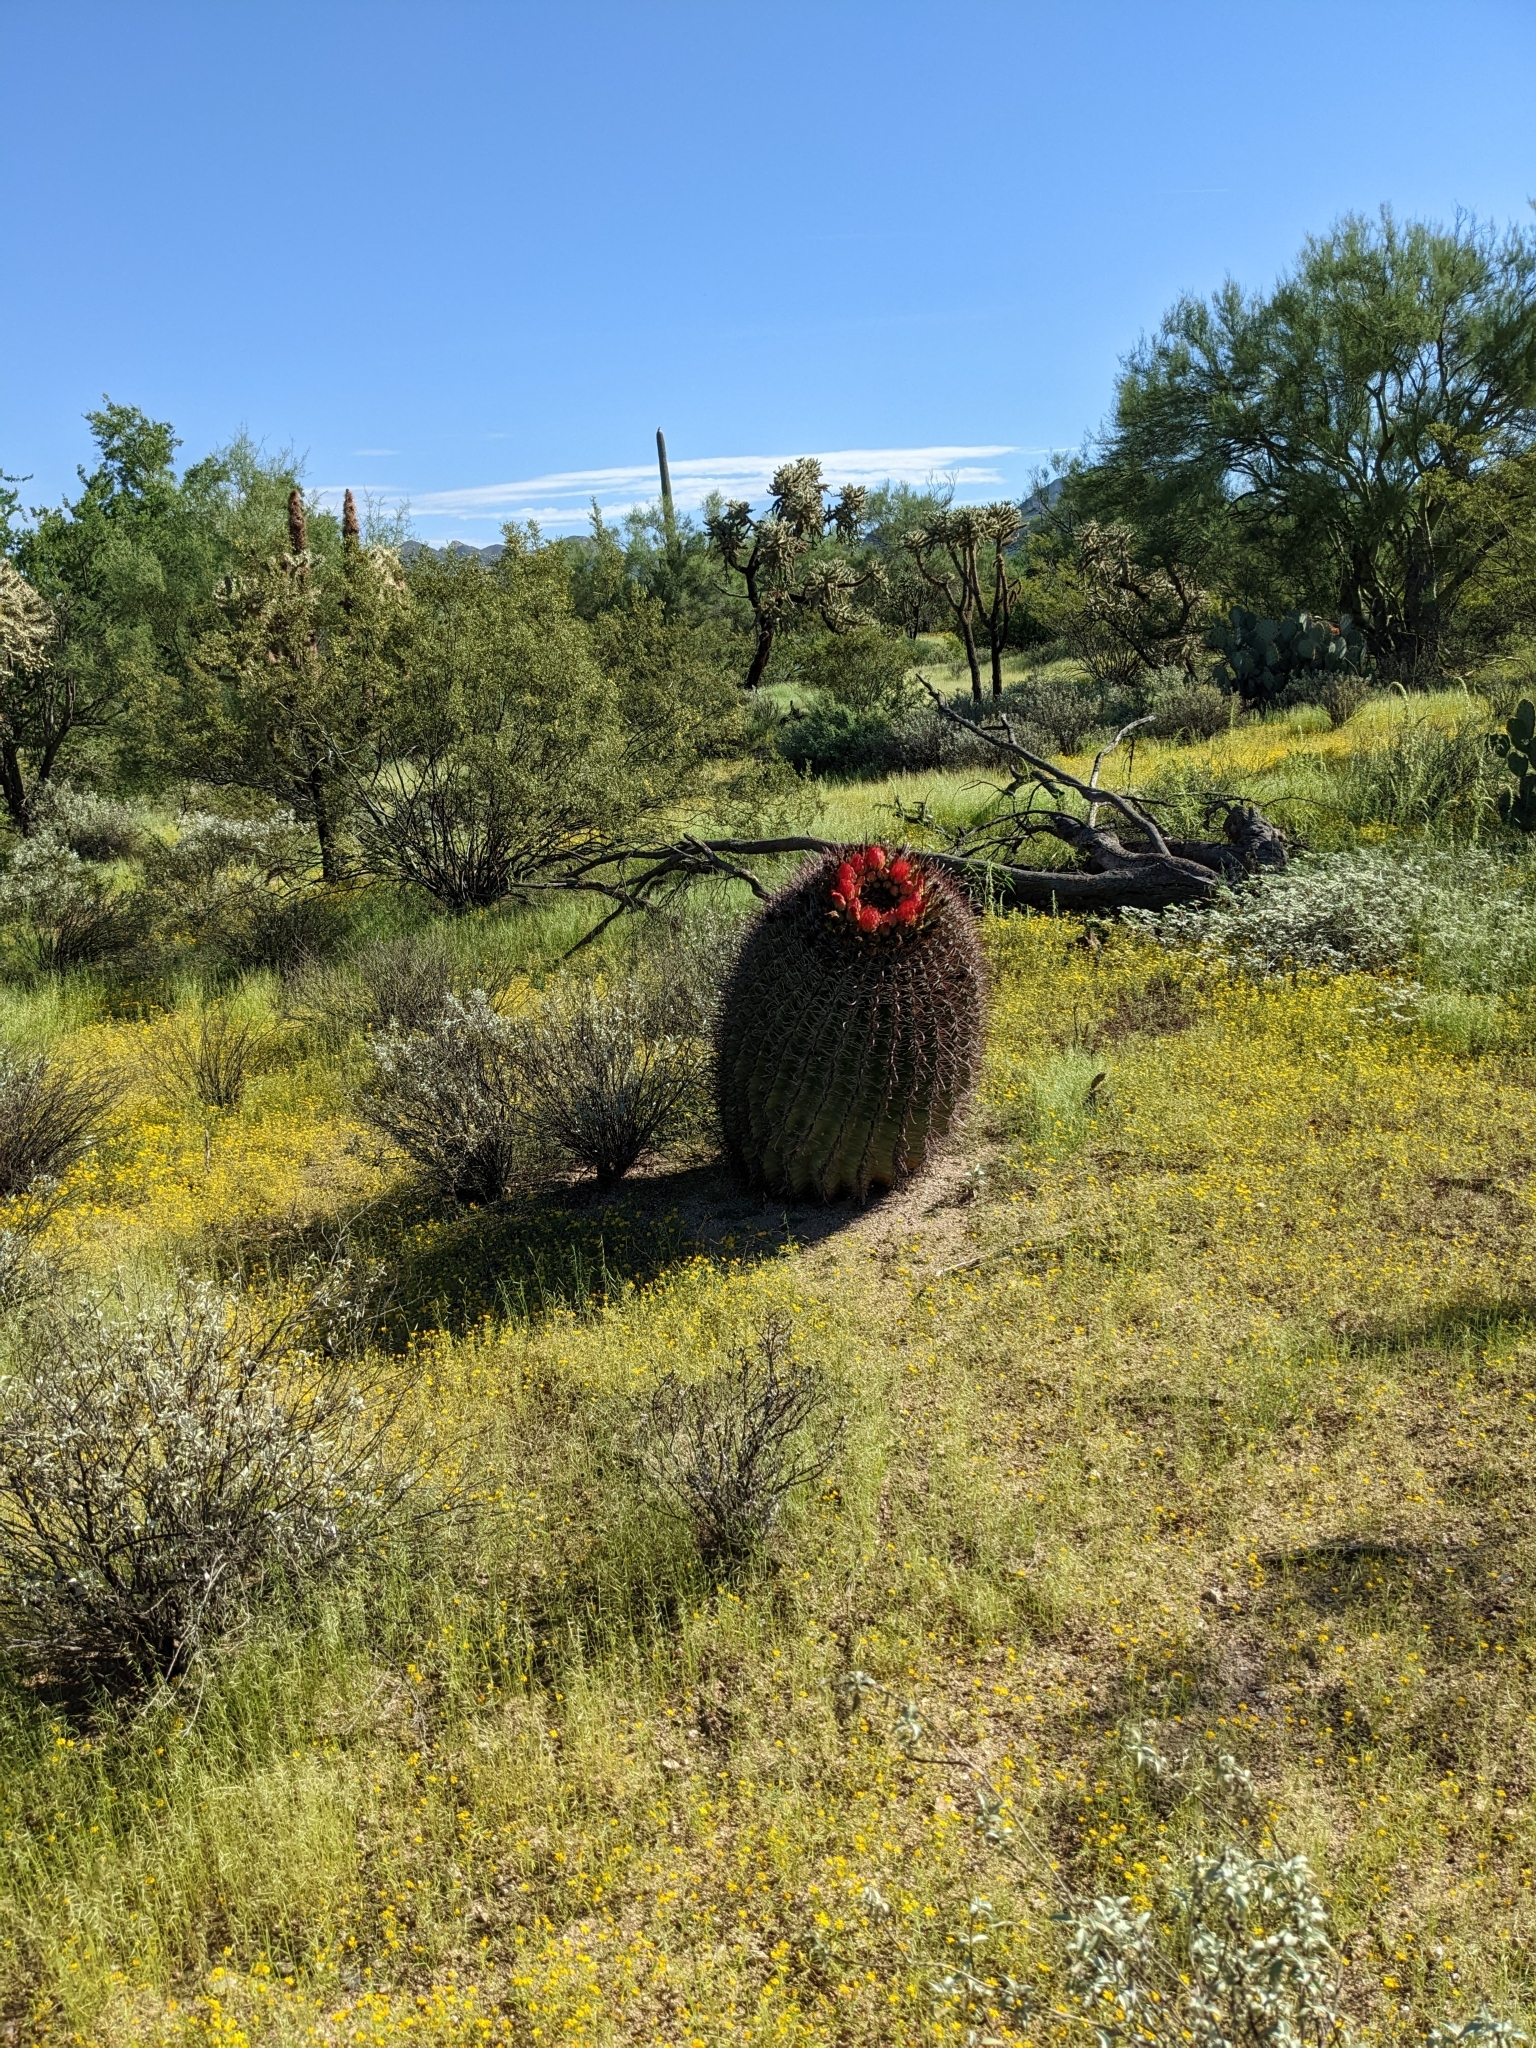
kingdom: Plantae
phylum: Tracheophyta
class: Magnoliopsida
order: Caryophyllales
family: Cactaceae
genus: Ferocactus
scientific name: Ferocactus wislizeni
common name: Candy barrel cactus
